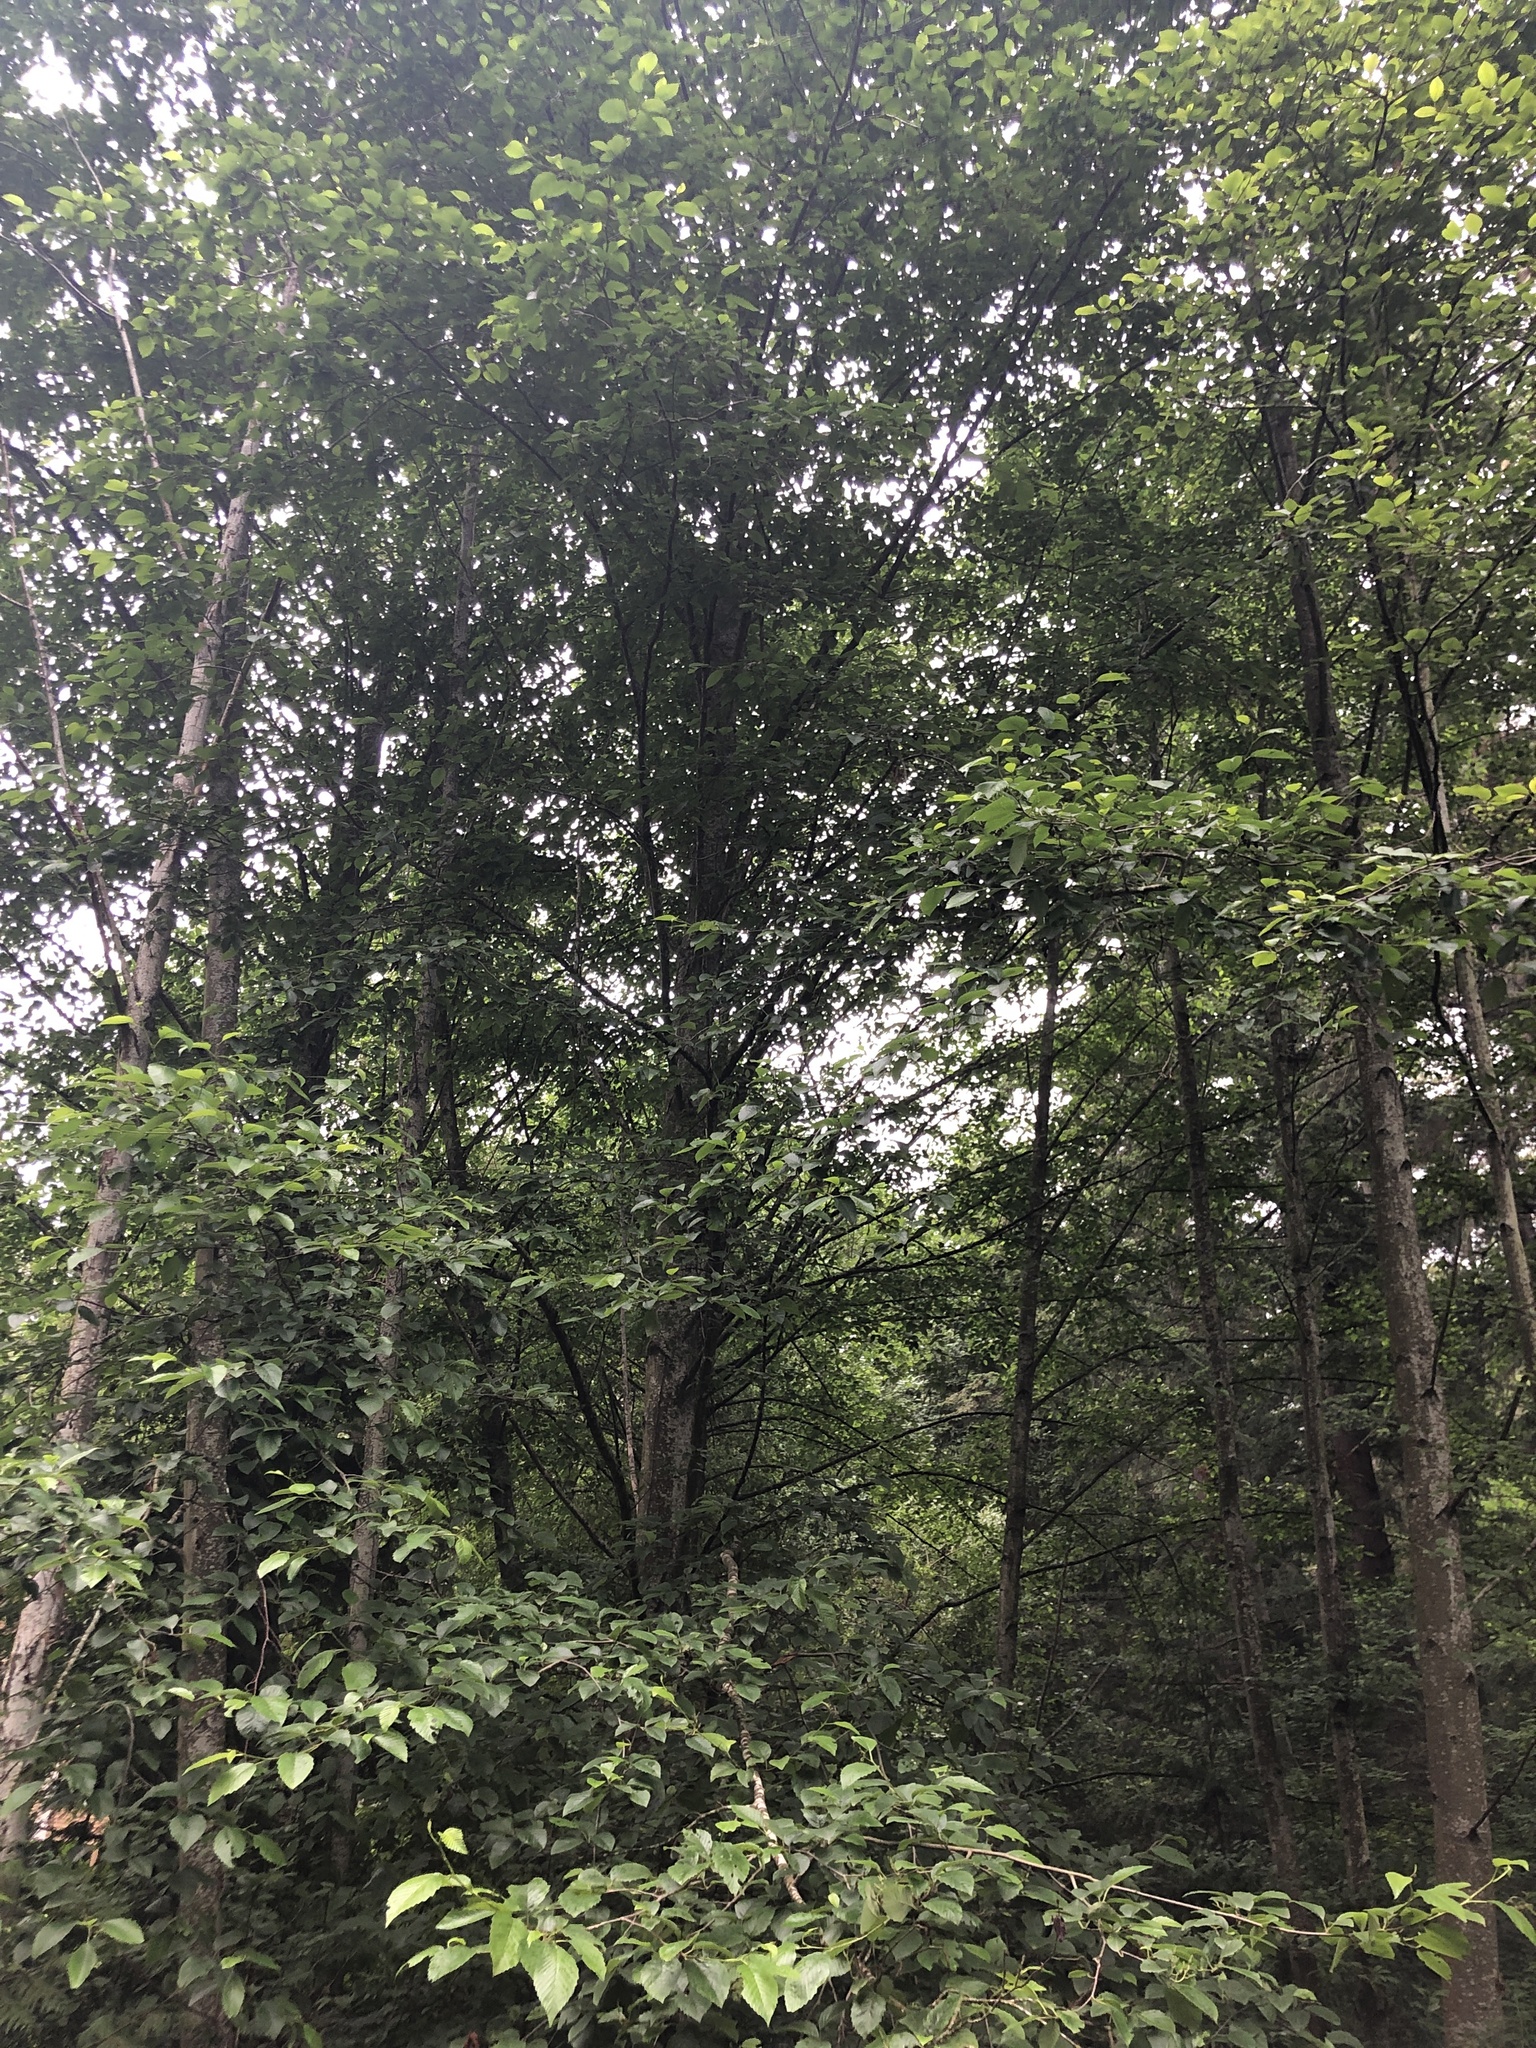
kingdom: Plantae
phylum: Tracheophyta
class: Magnoliopsida
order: Fagales
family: Betulaceae
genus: Alnus
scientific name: Alnus rubra
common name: Red alder
